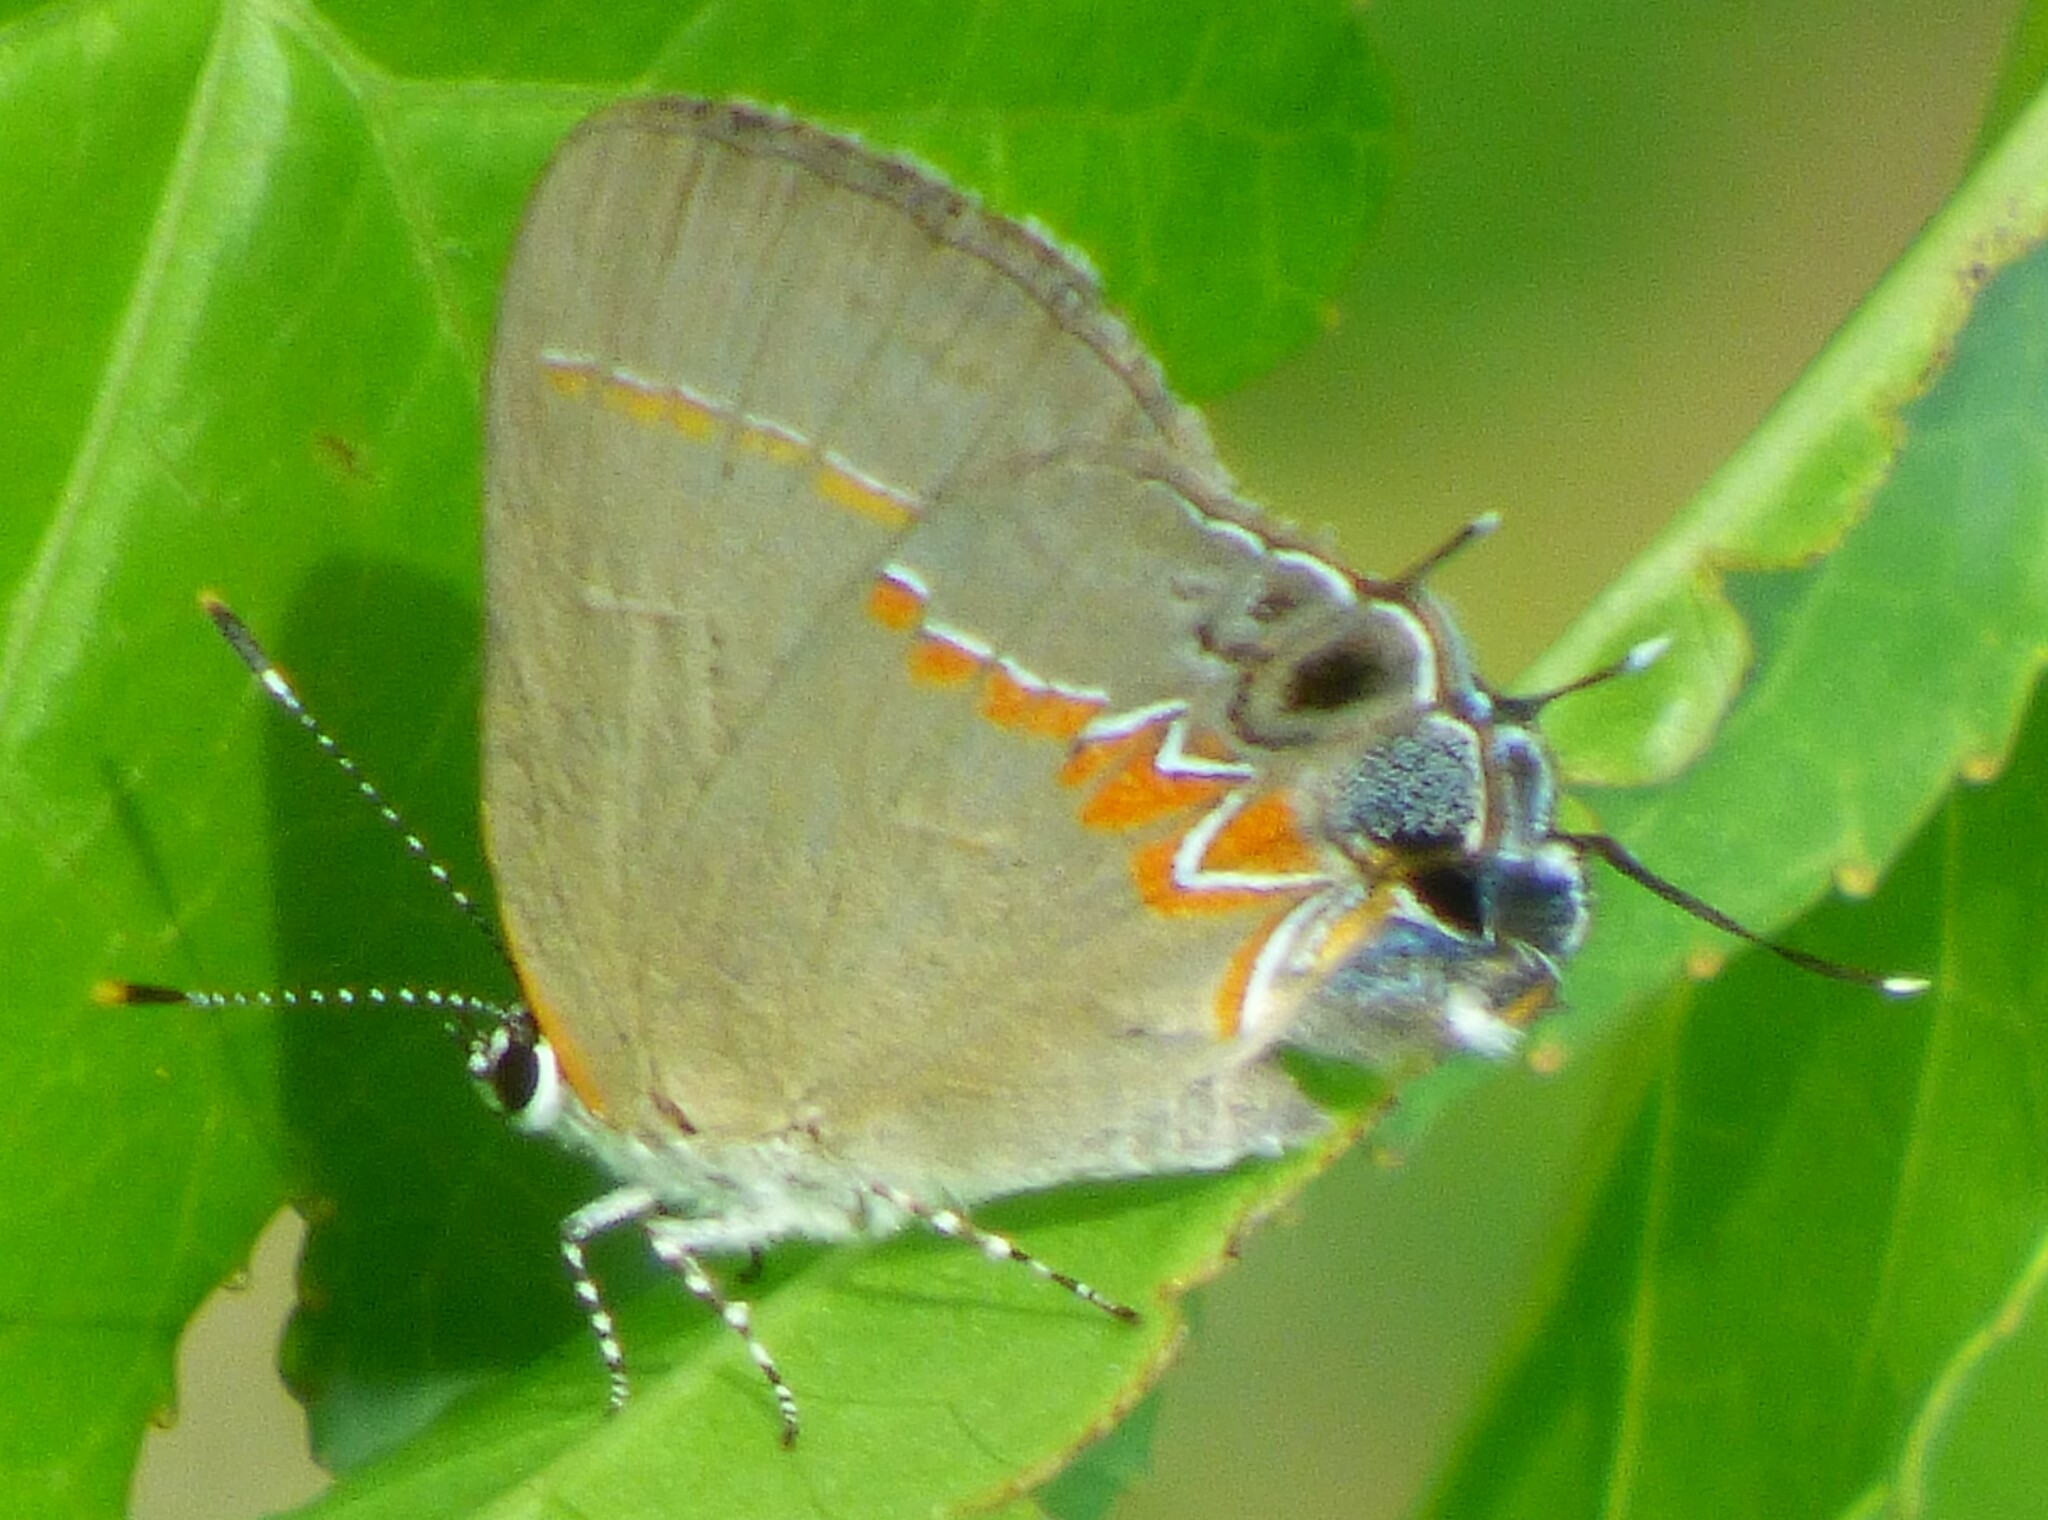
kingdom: Animalia
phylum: Arthropoda
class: Insecta
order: Lepidoptera
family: Lycaenidae
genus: Calycopis
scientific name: Calycopis cecrops
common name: Red-banded hairstreak
